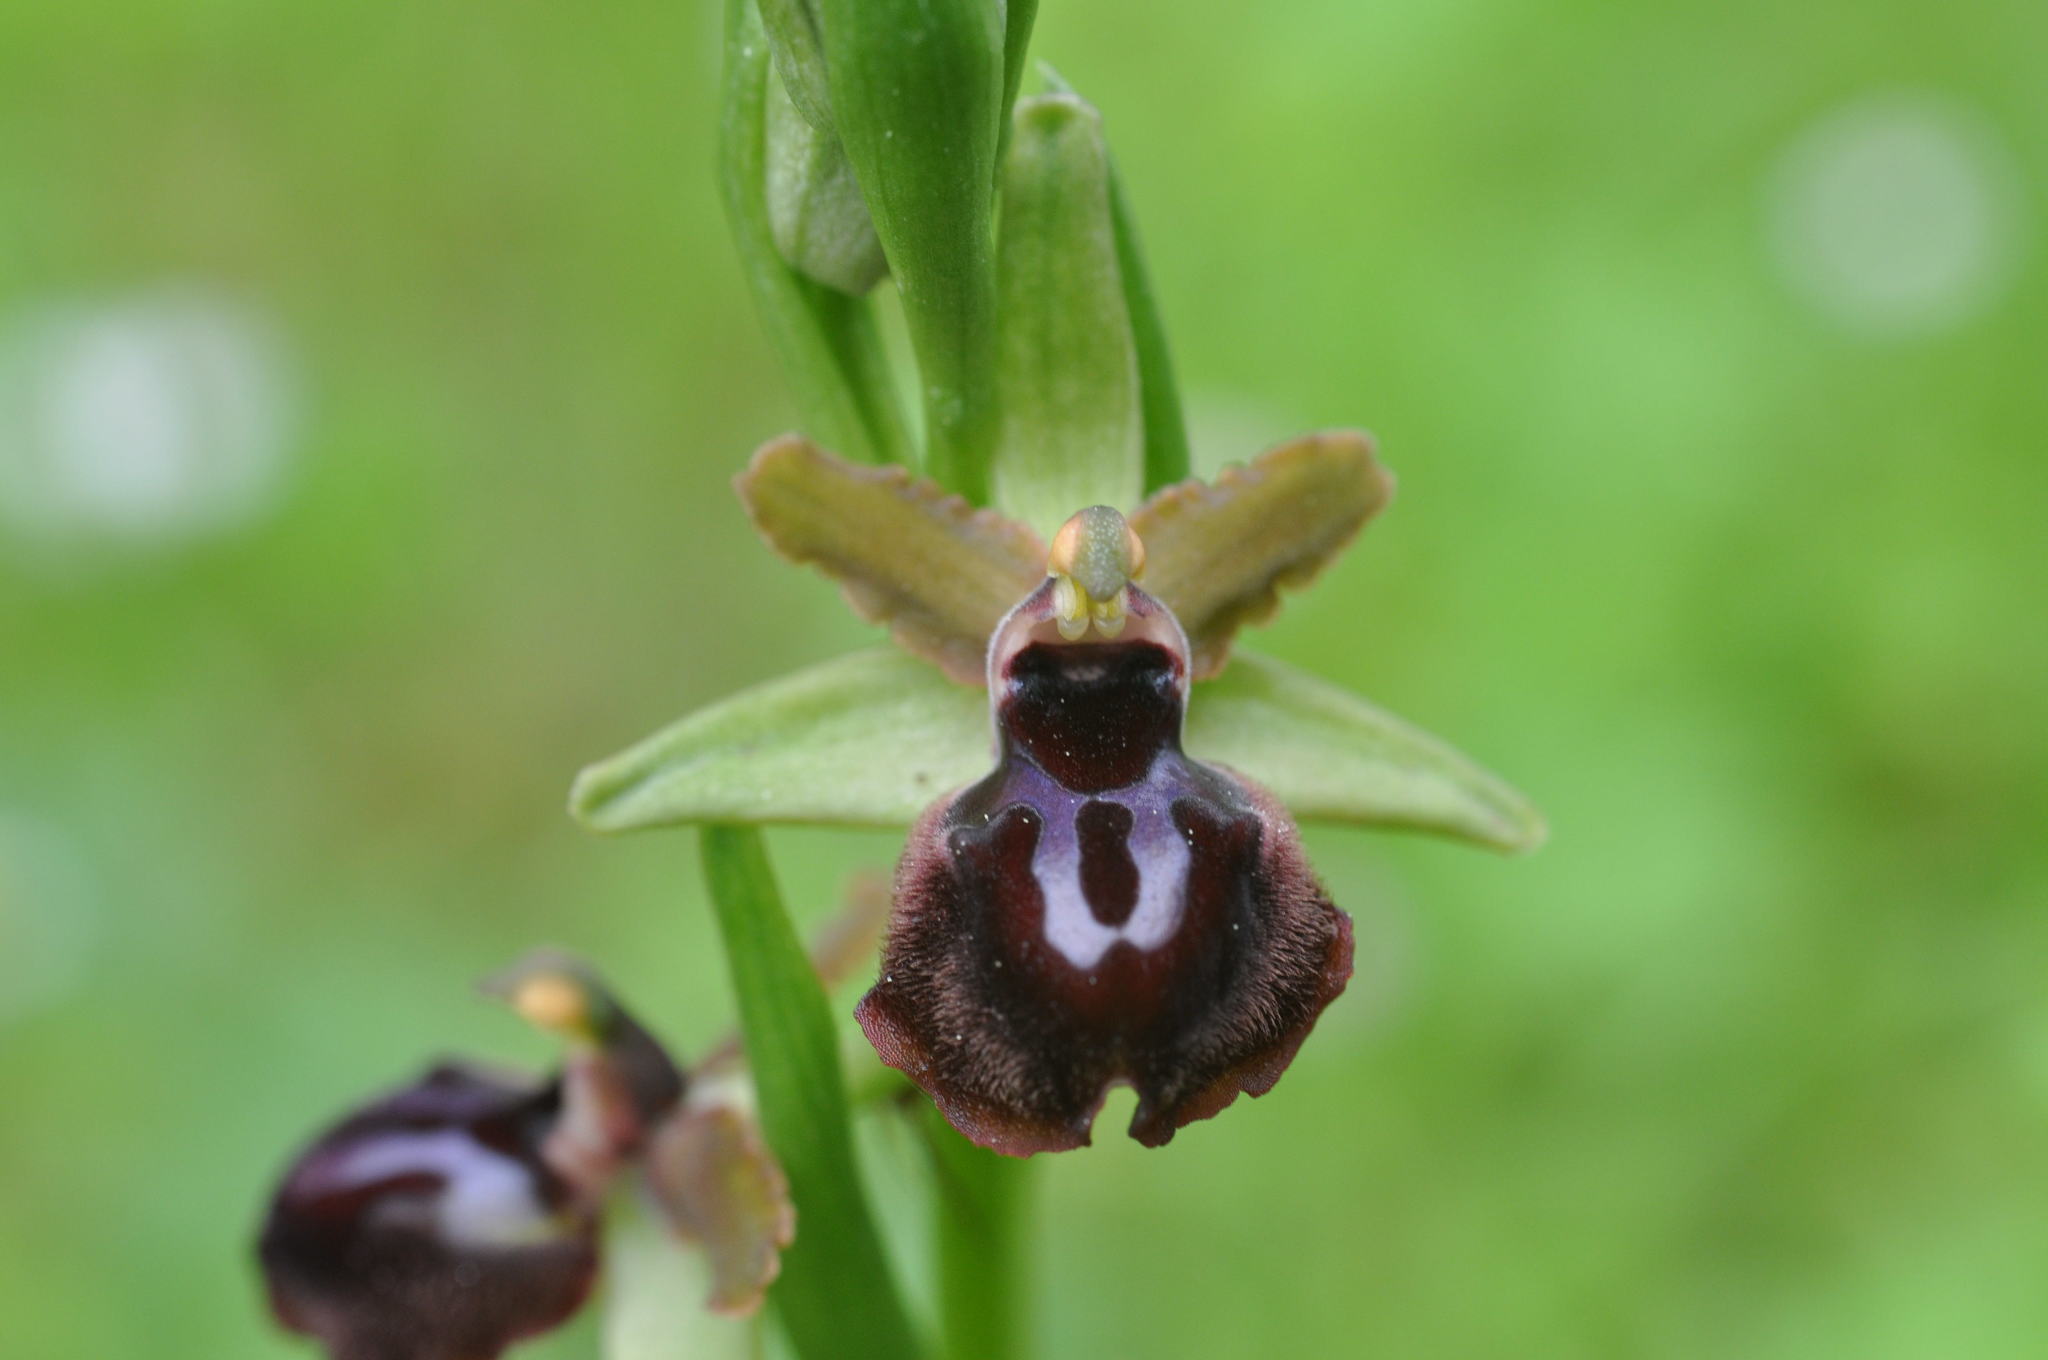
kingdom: Plantae
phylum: Tracheophyta
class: Liliopsida
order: Asparagales
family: Orchidaceae
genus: Ophrys
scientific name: Ophrys sphegodes
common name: Early spider-orchid
